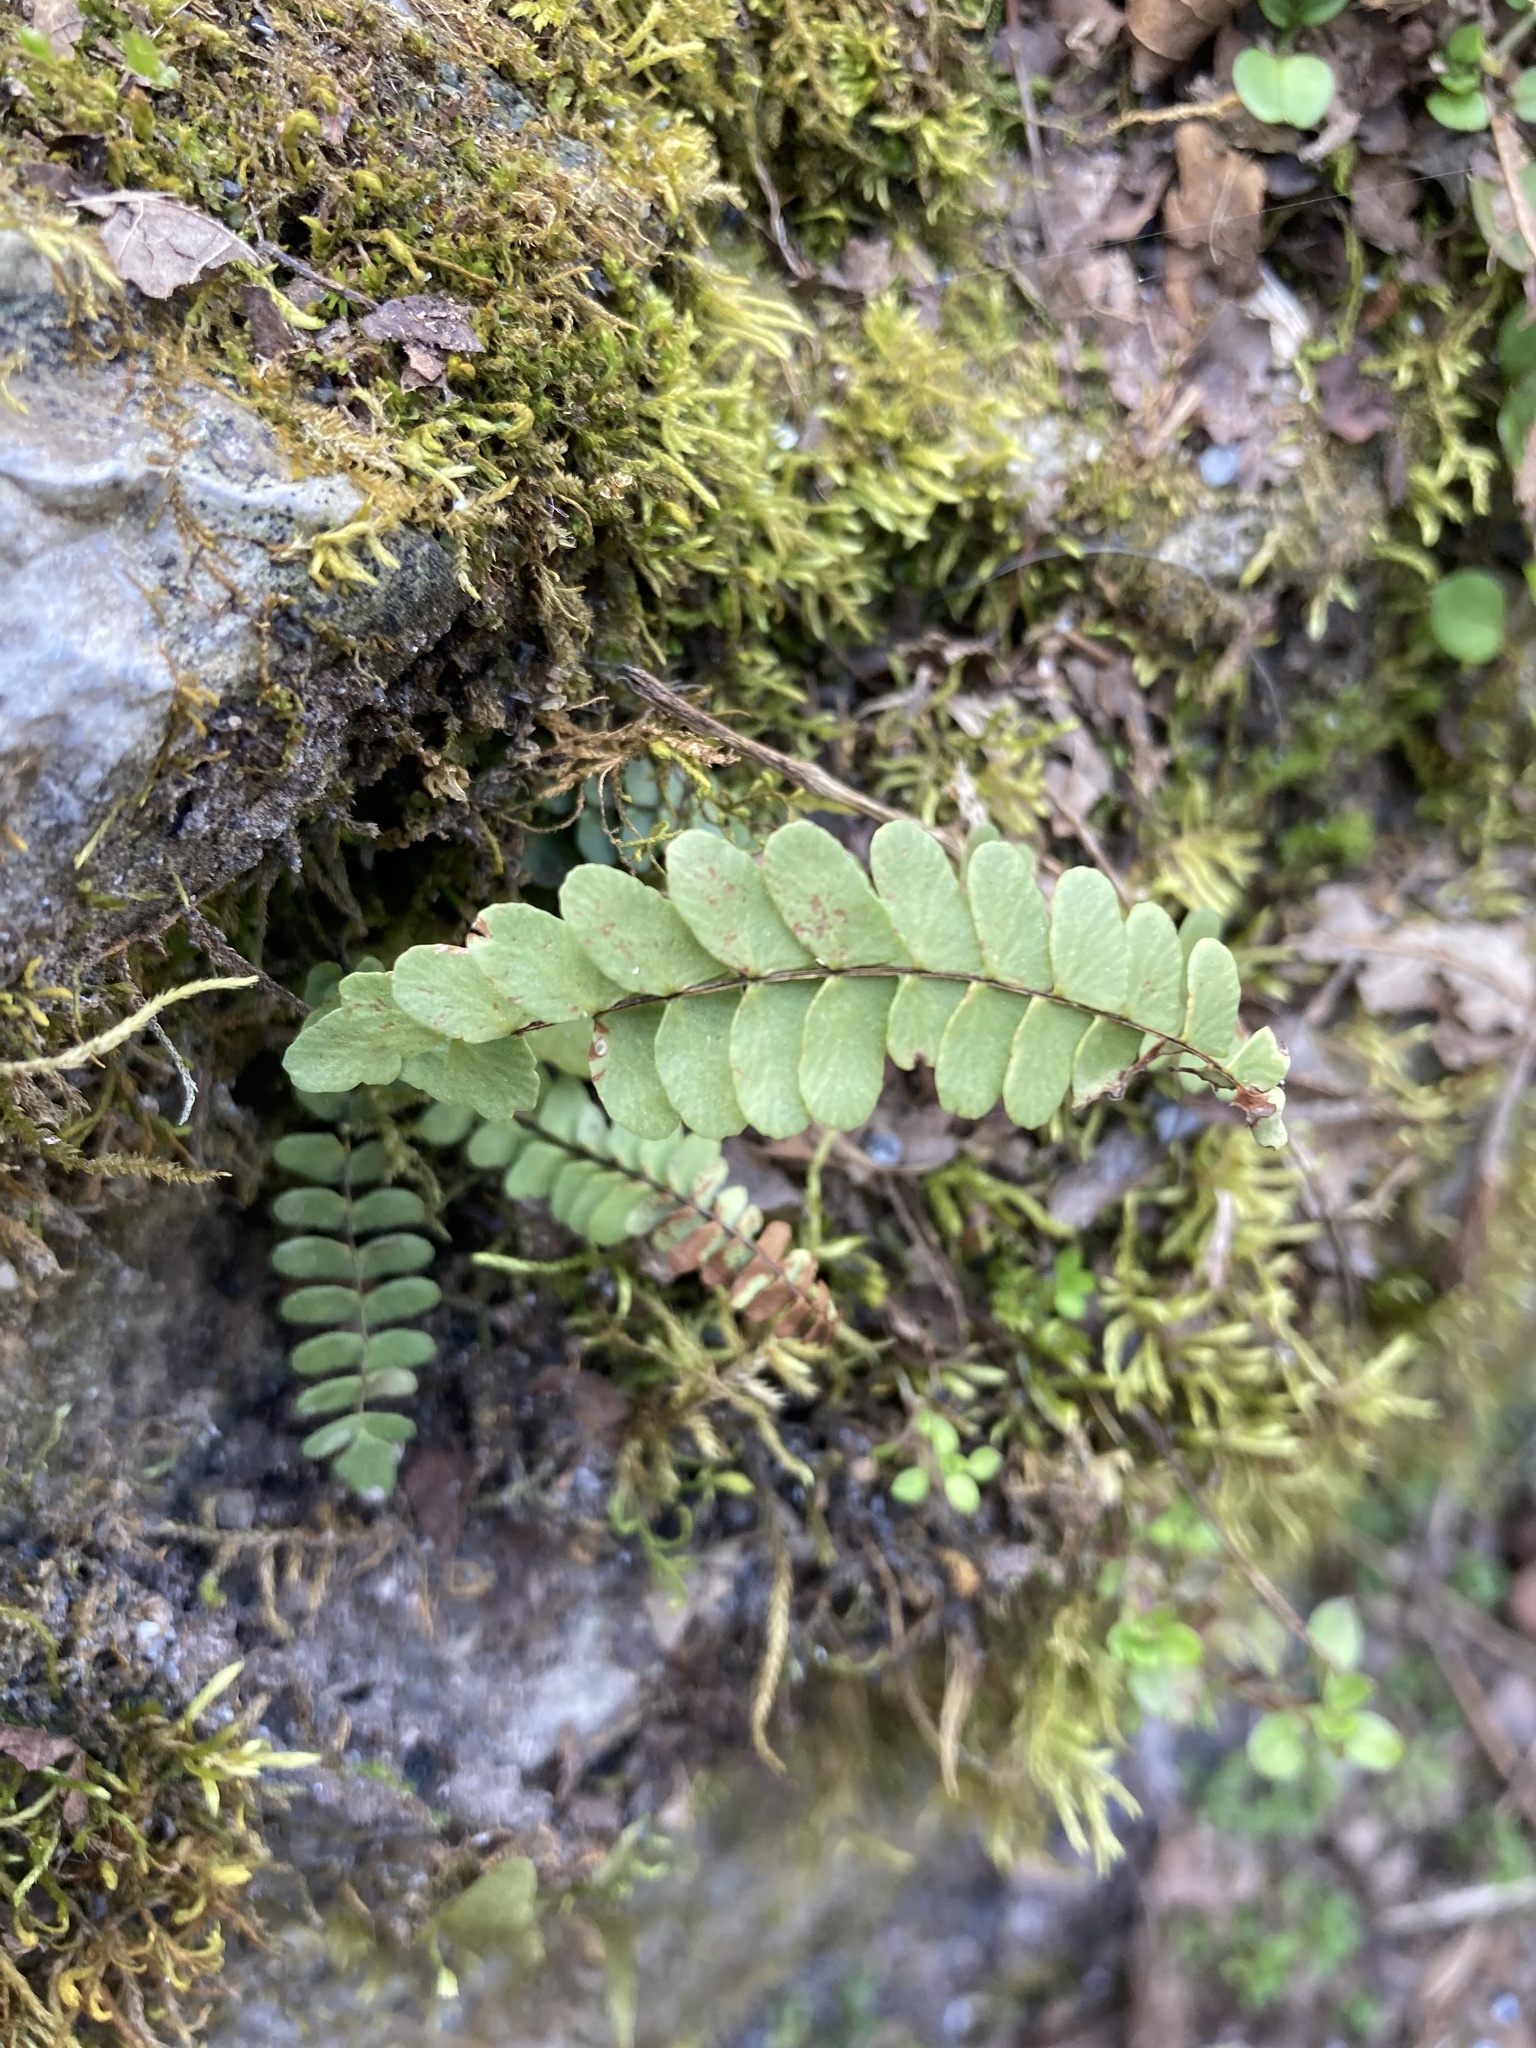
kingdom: Plantae
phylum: Tracheophyta
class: Polypodiopsida
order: Polypodiales
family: Aspleniaceae
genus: Asplenium
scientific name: Asplenium resiliens
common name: Blackstem spleenwort
